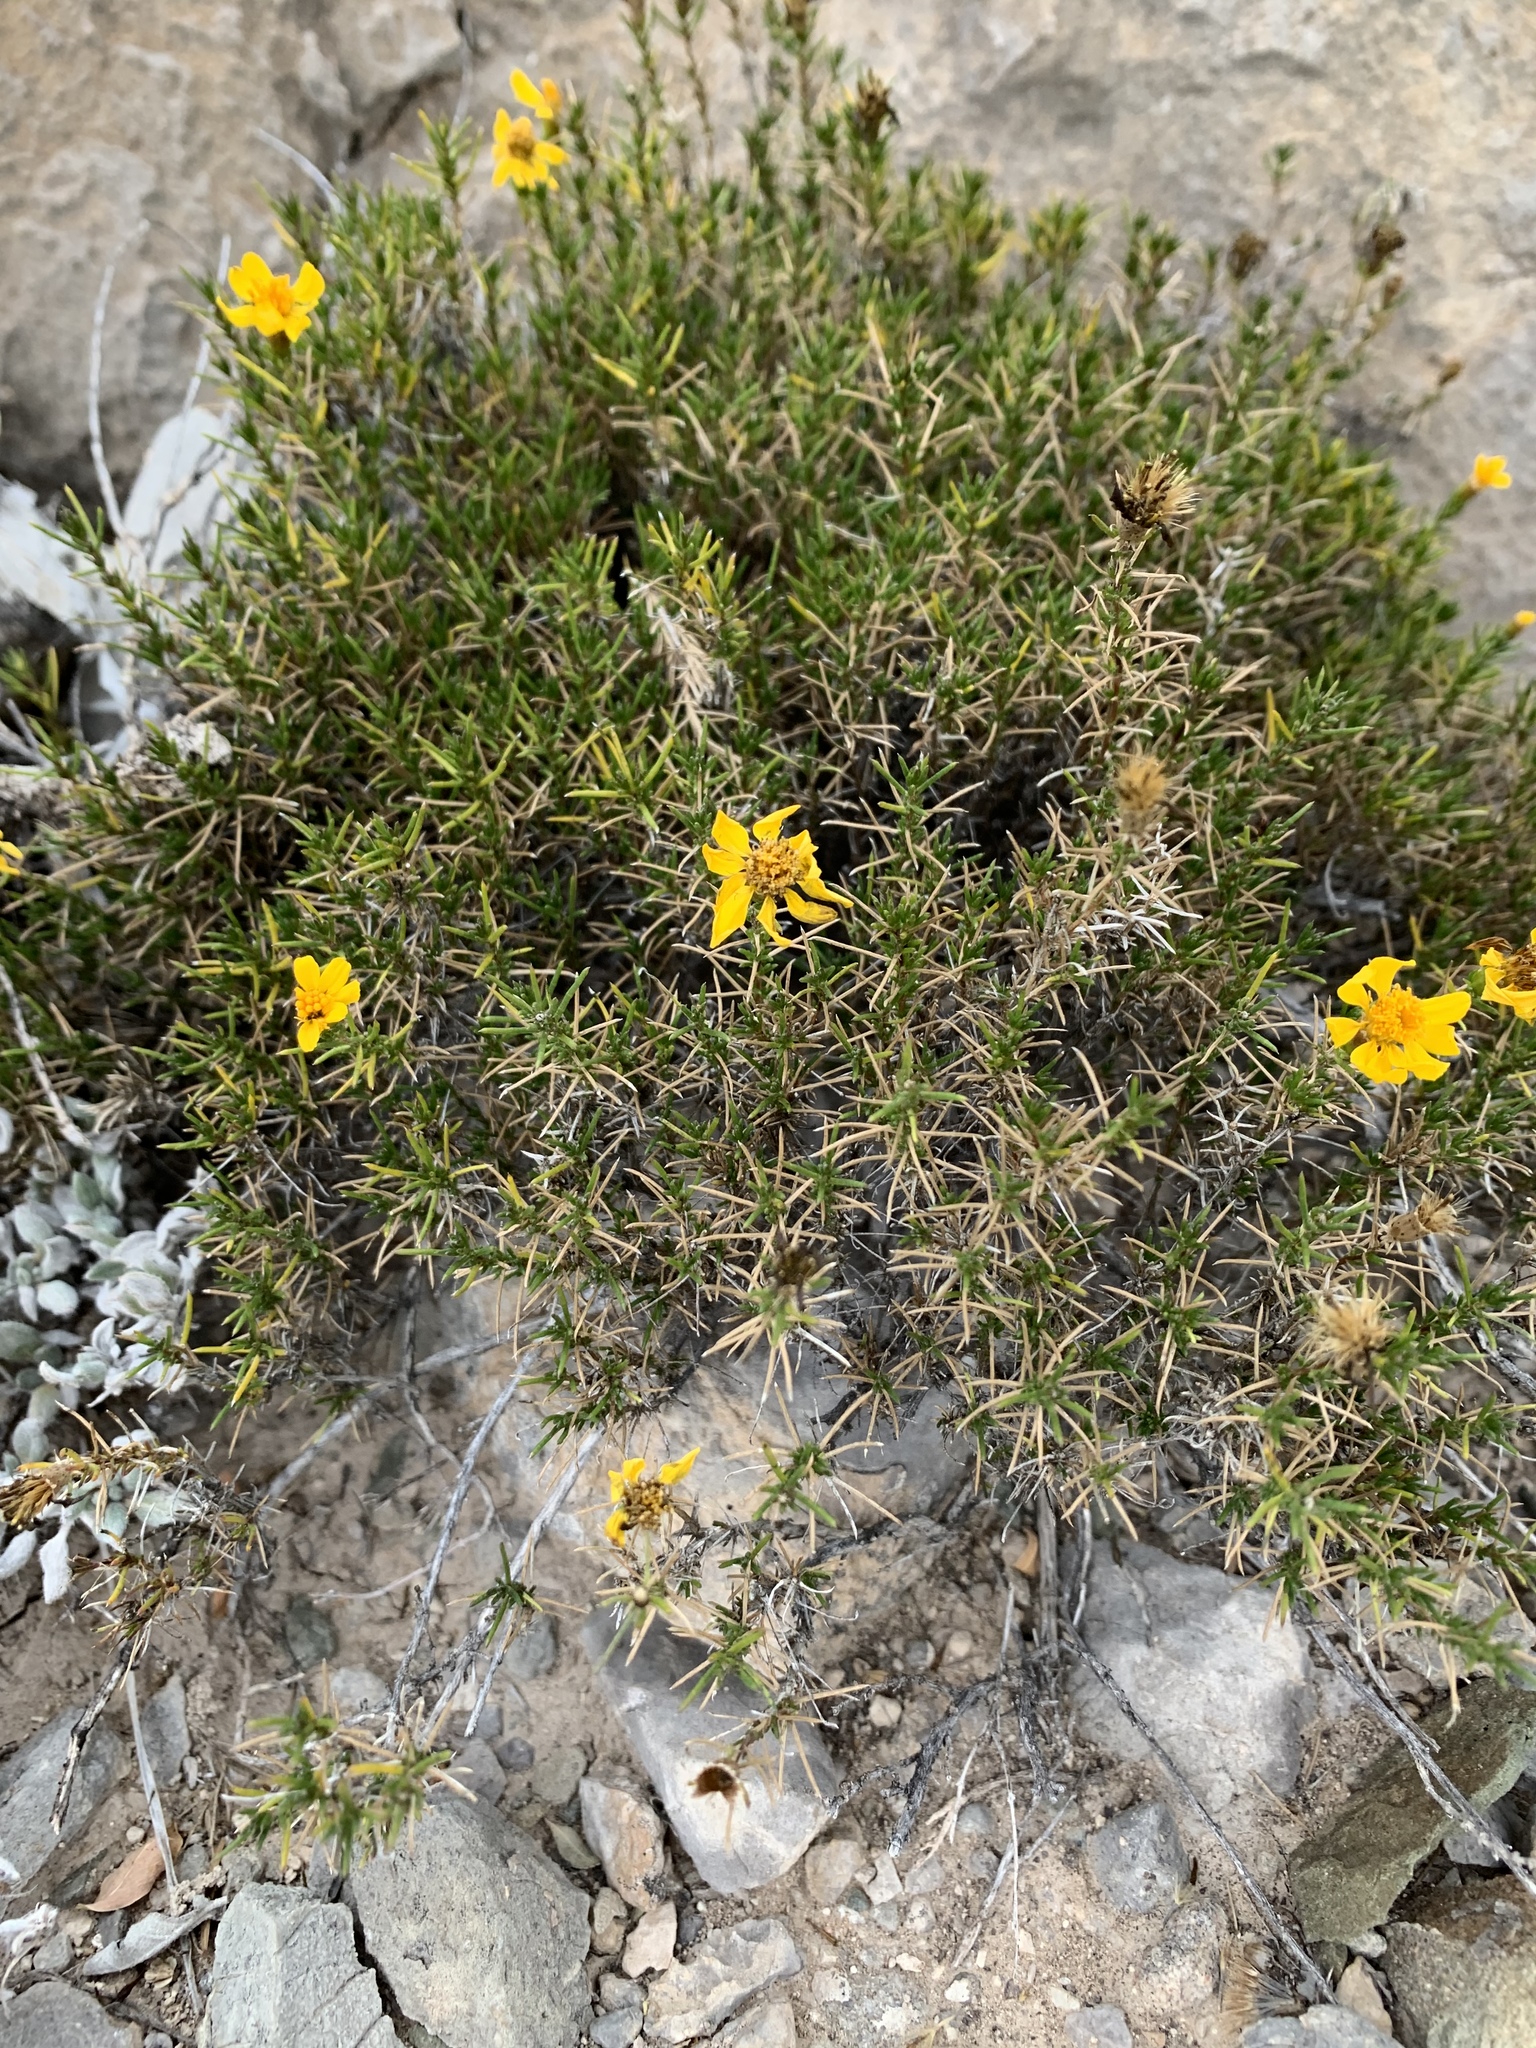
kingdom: Plantae
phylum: Tracheophyta
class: Magnoliopsida
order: Asterales
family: Asteraceae
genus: Thymophylla
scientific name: Thymophylla acerosa
